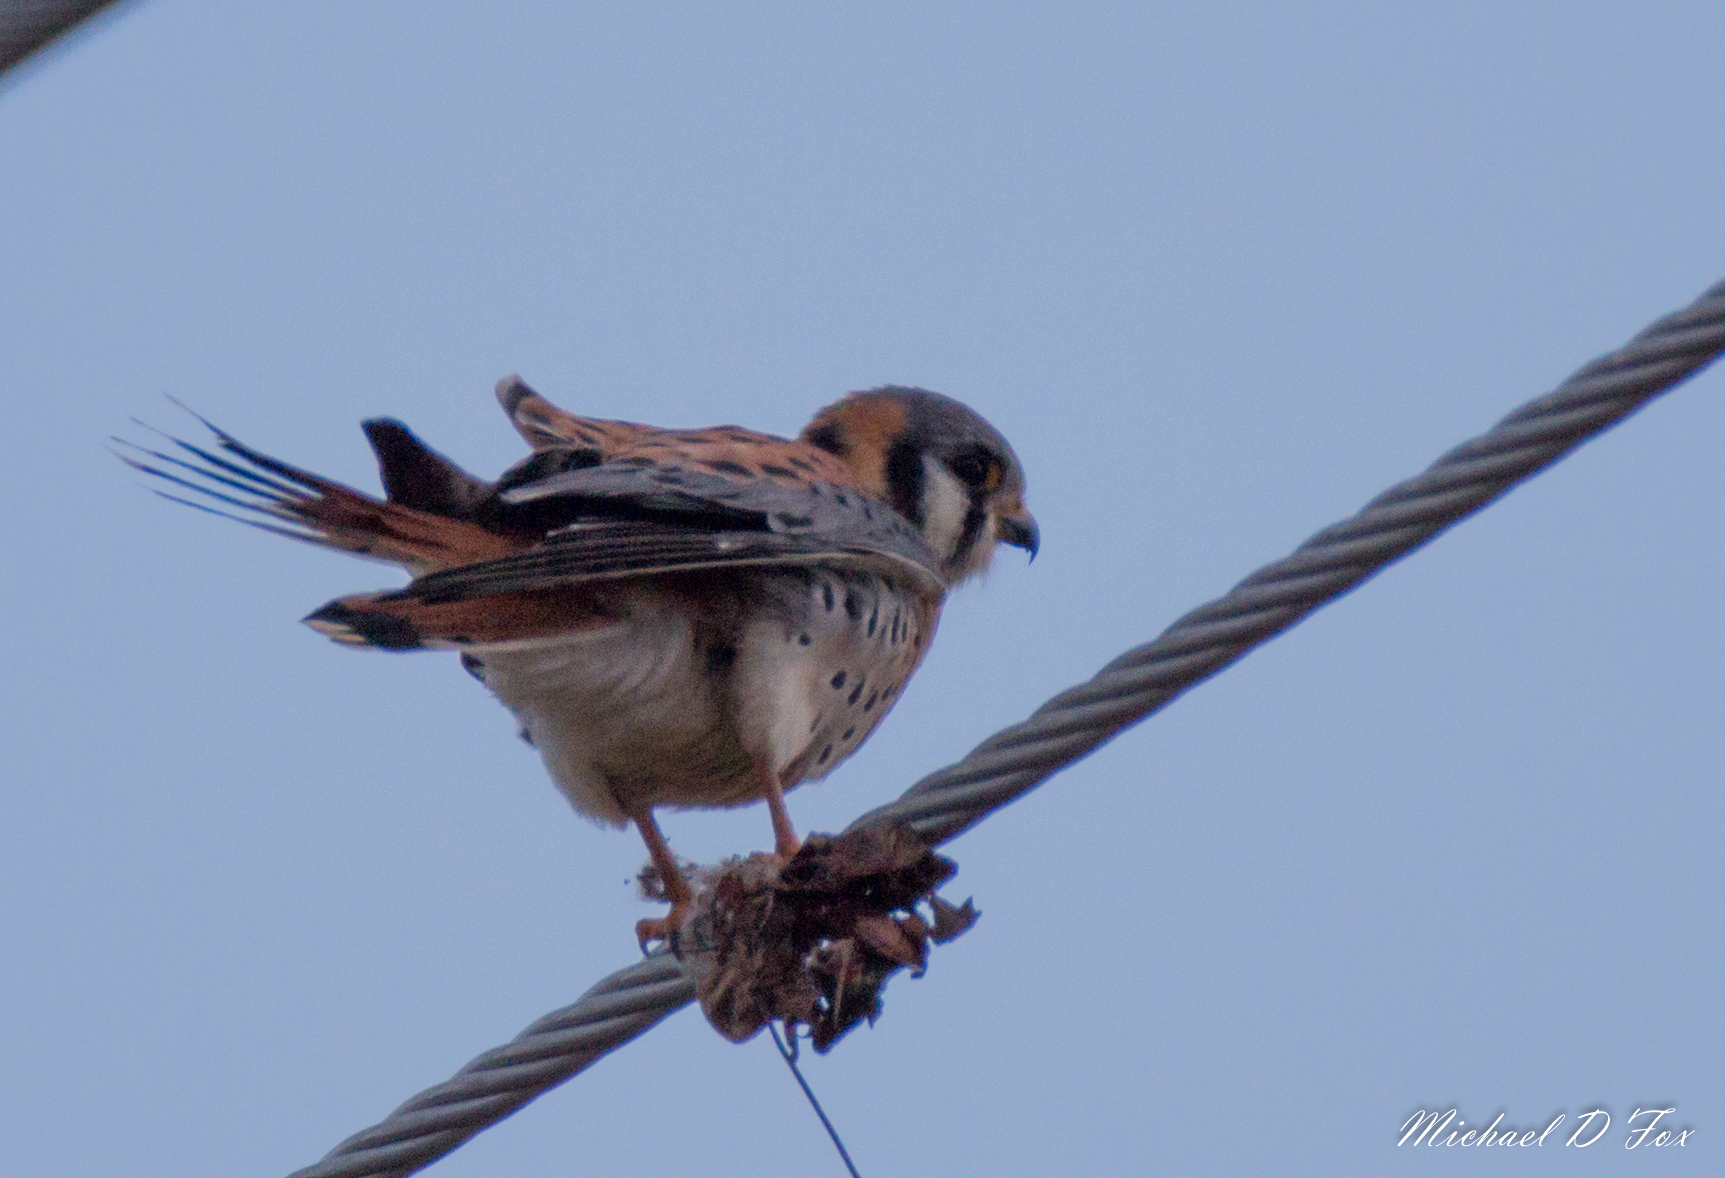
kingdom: Animalia
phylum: Chordata
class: Aves
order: Falconiformes
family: Falconidae
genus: Falco
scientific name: Falco sparverius
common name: American kestrel
